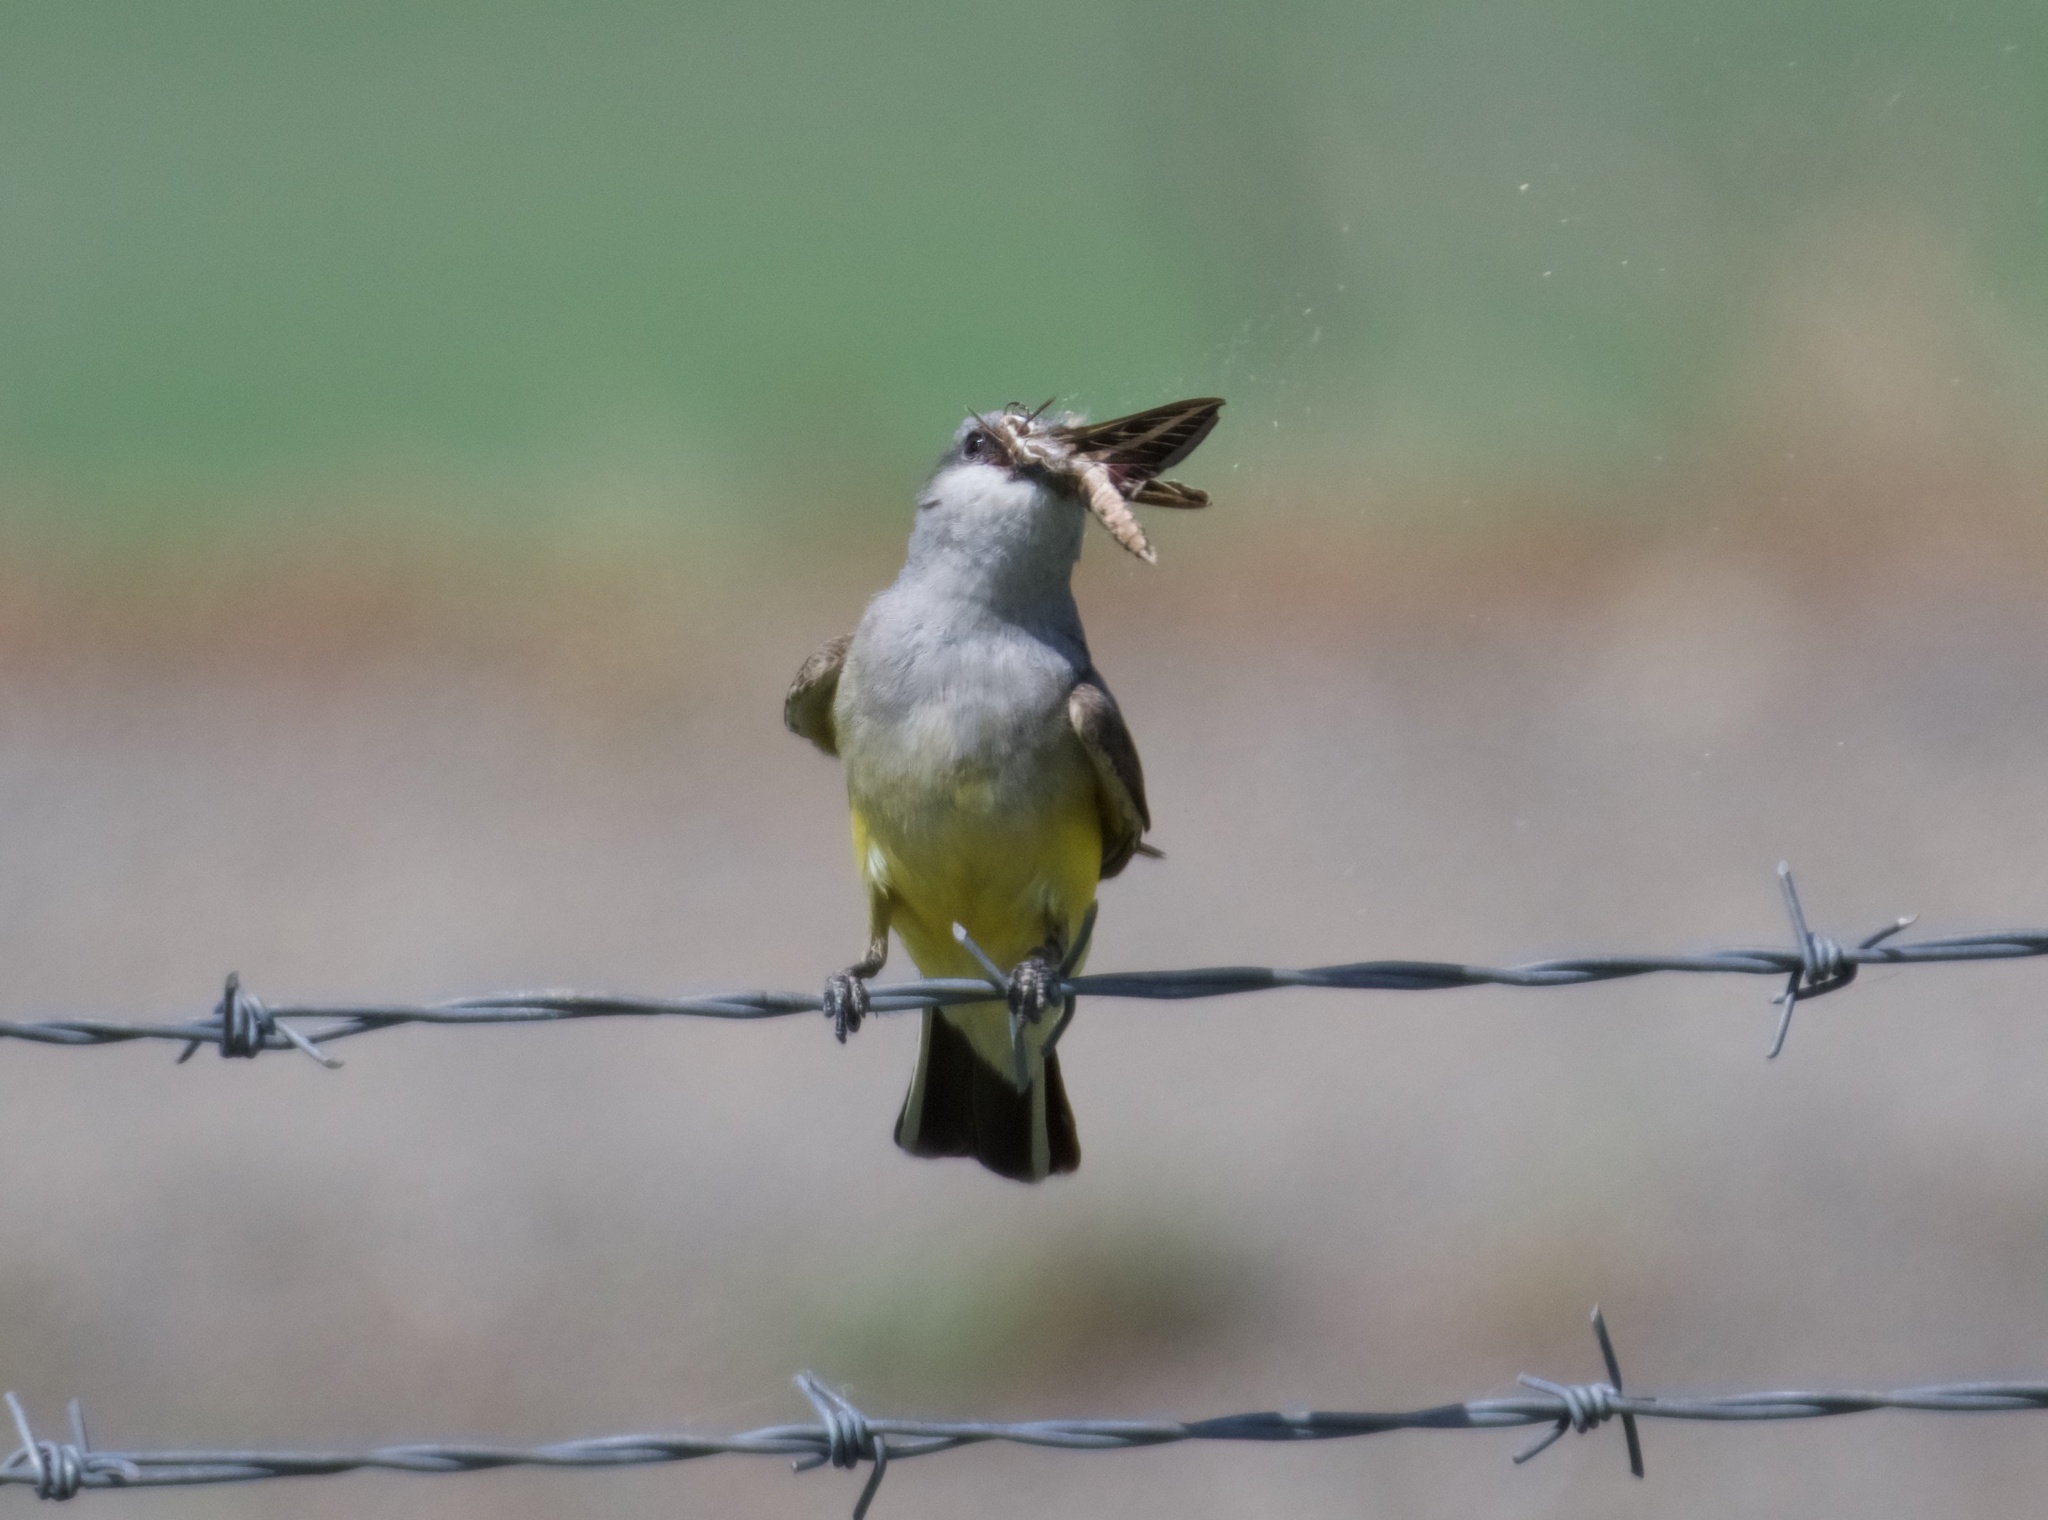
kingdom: Animalia
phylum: Chordata
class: Aves
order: Passeriformes
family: Tyrannidae
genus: Tyrannus
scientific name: Tyrannus verticalis
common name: Western kingbird
